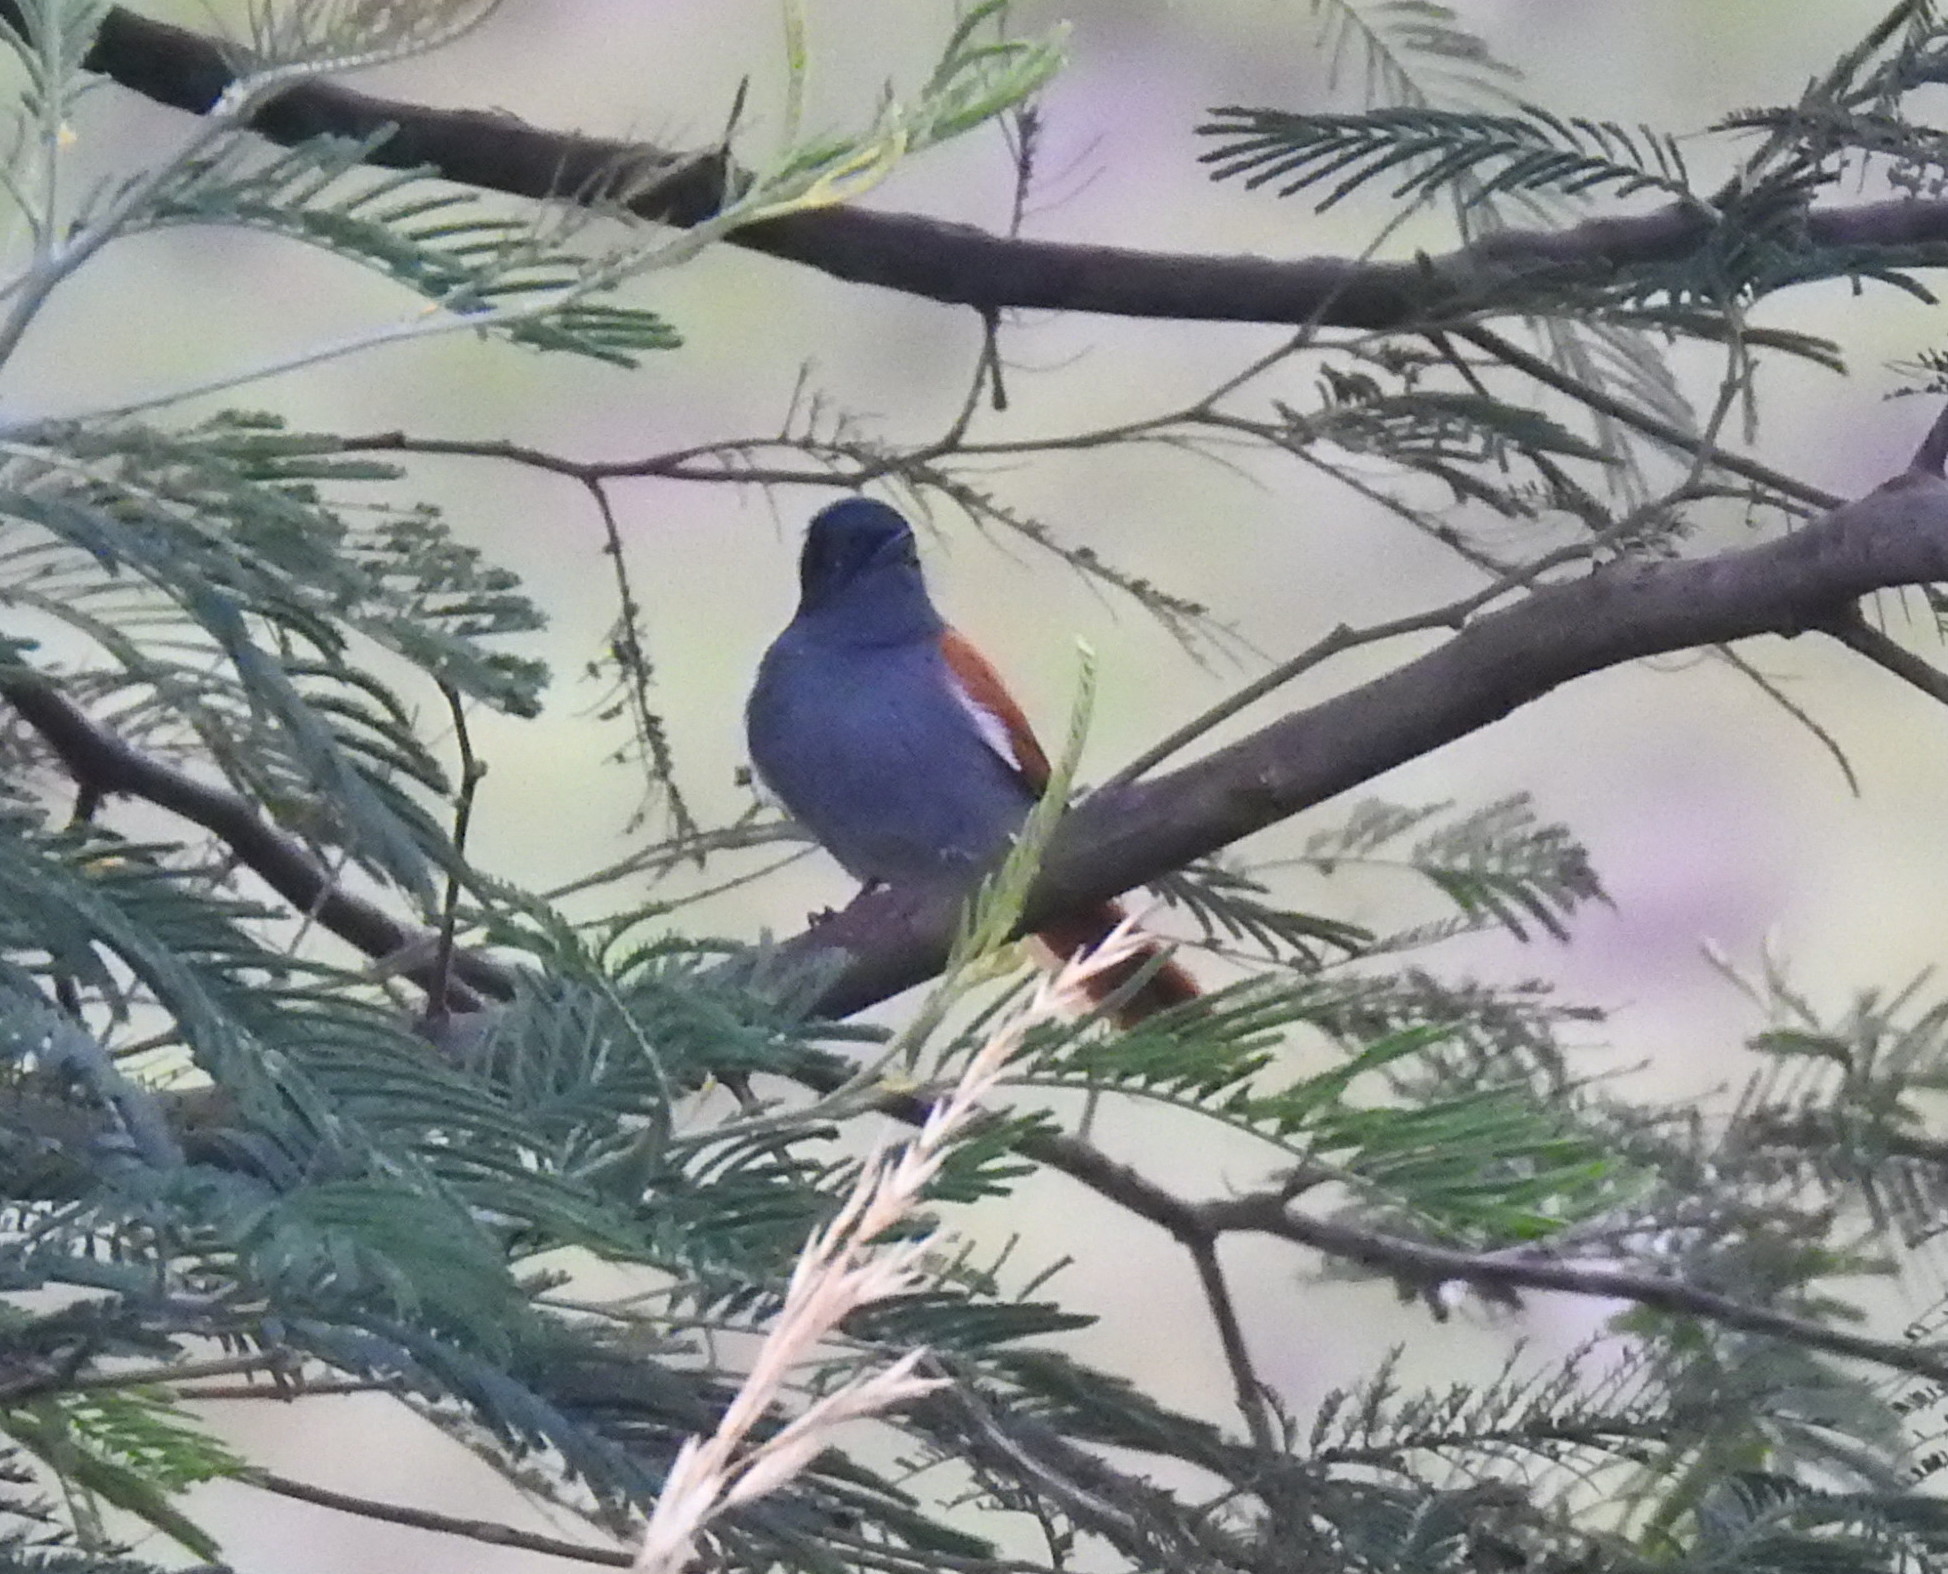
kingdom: Animalia
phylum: Chordata
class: Aves
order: Passeriformes
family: Monarchidae
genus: Terpsiphone
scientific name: Terpsiphone viridis
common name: African paradise flycatcher
